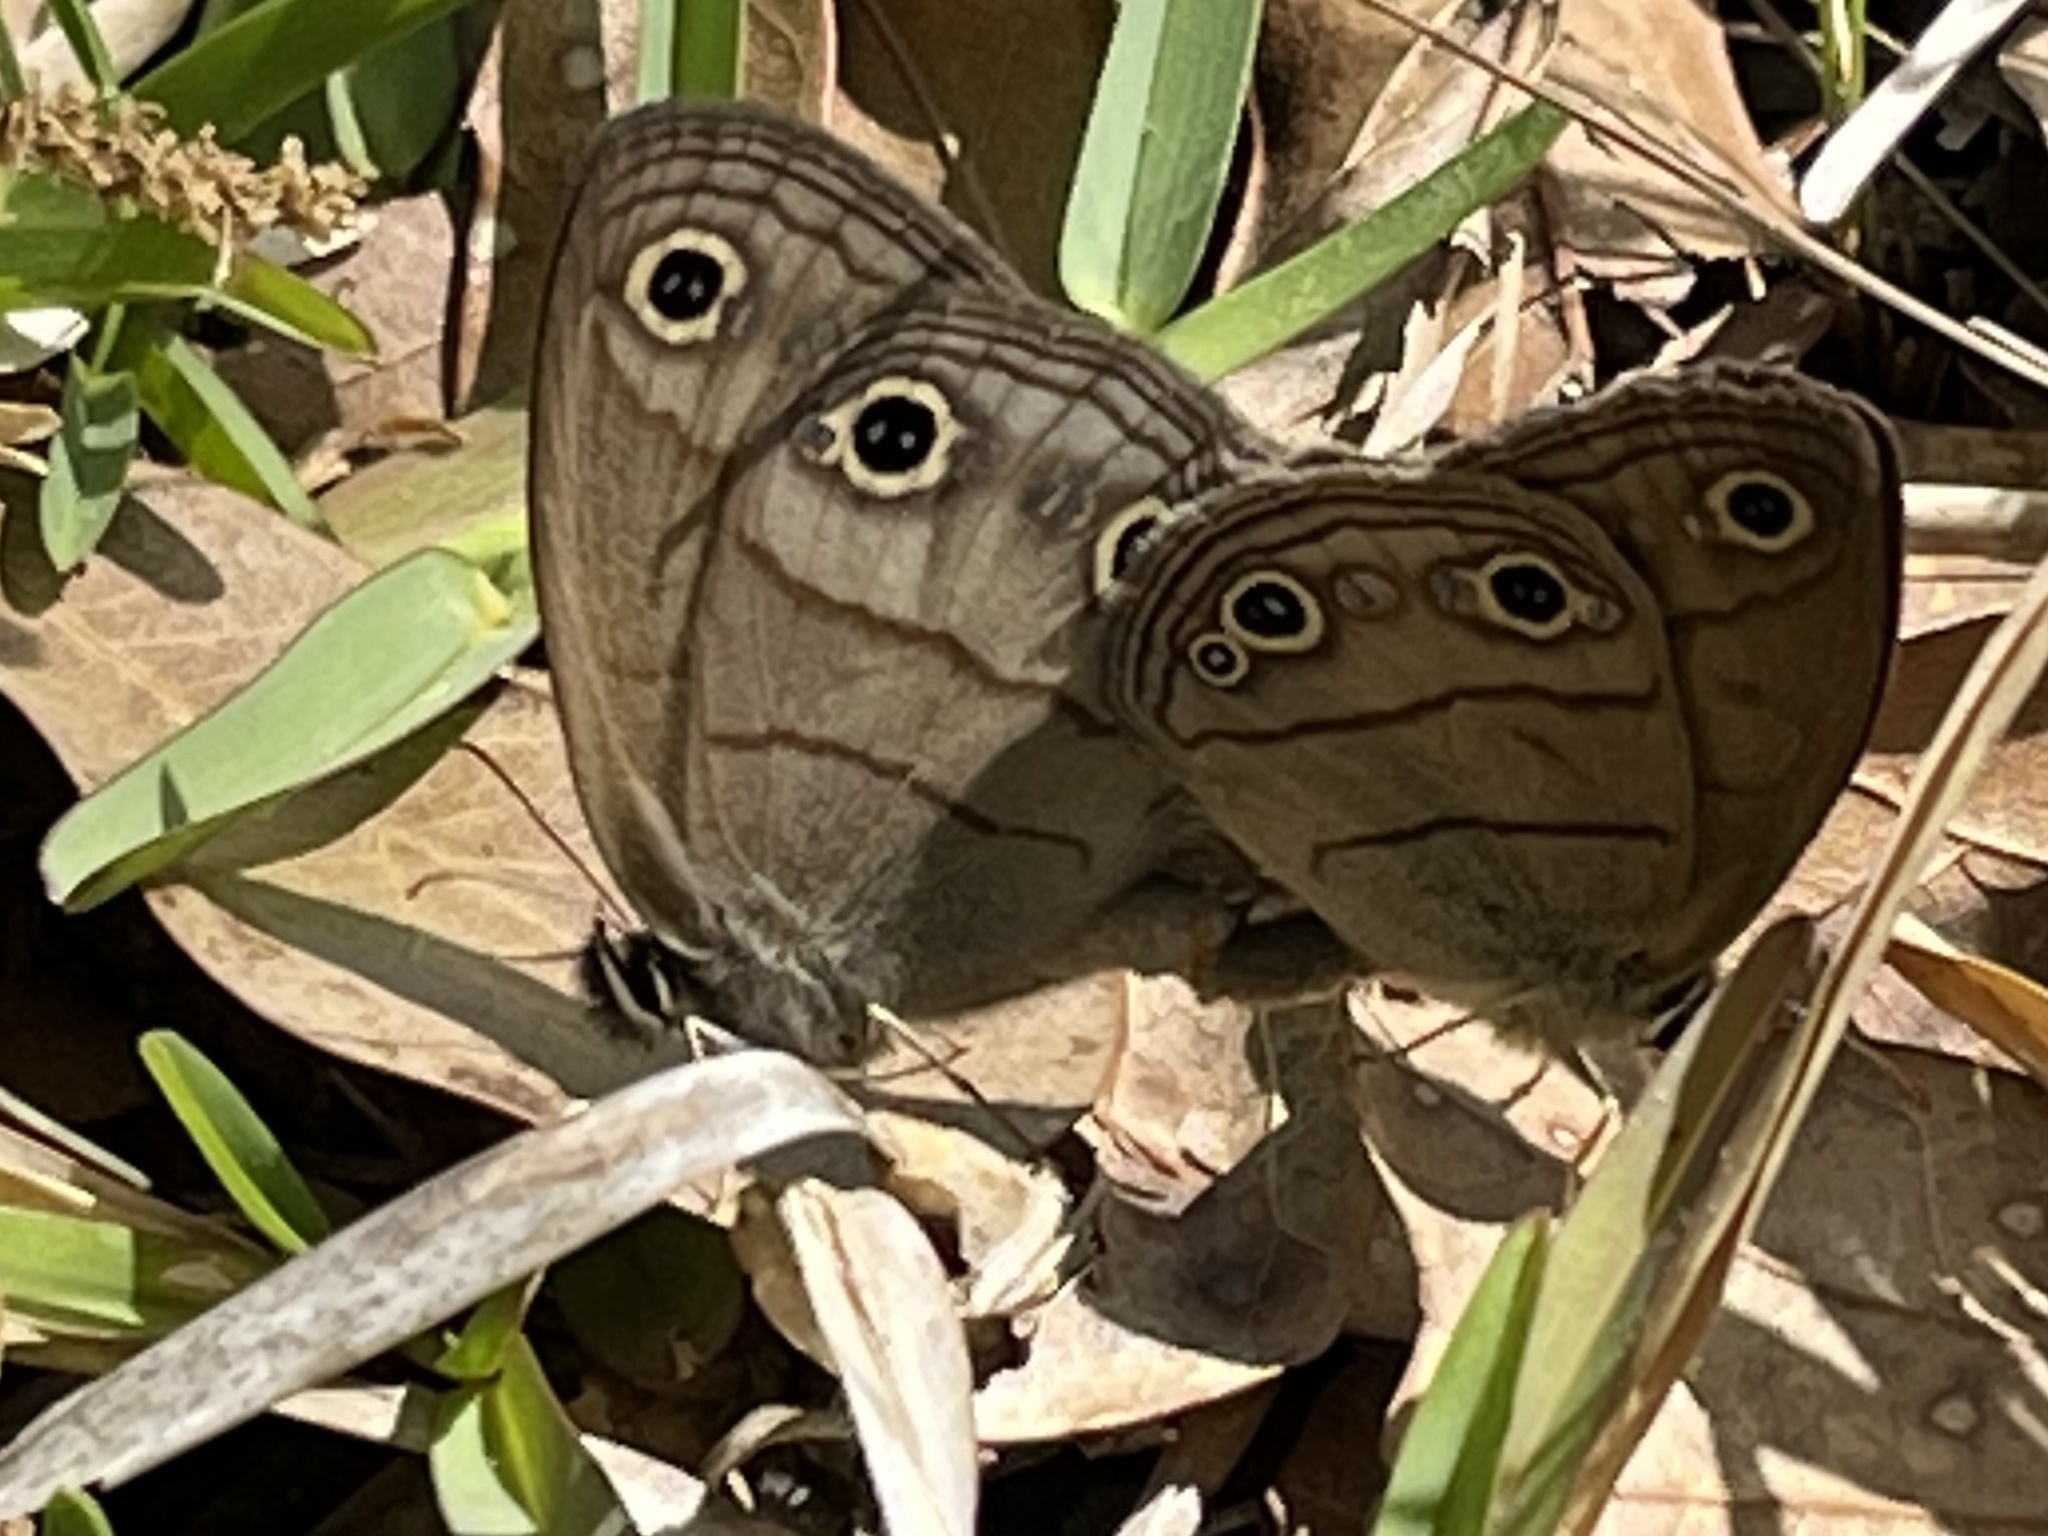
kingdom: Animalia
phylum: Arthropoda
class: Insecta
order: Lepidoptera
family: Nymphalidae
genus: Euptychia
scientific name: Euptychia cymela
